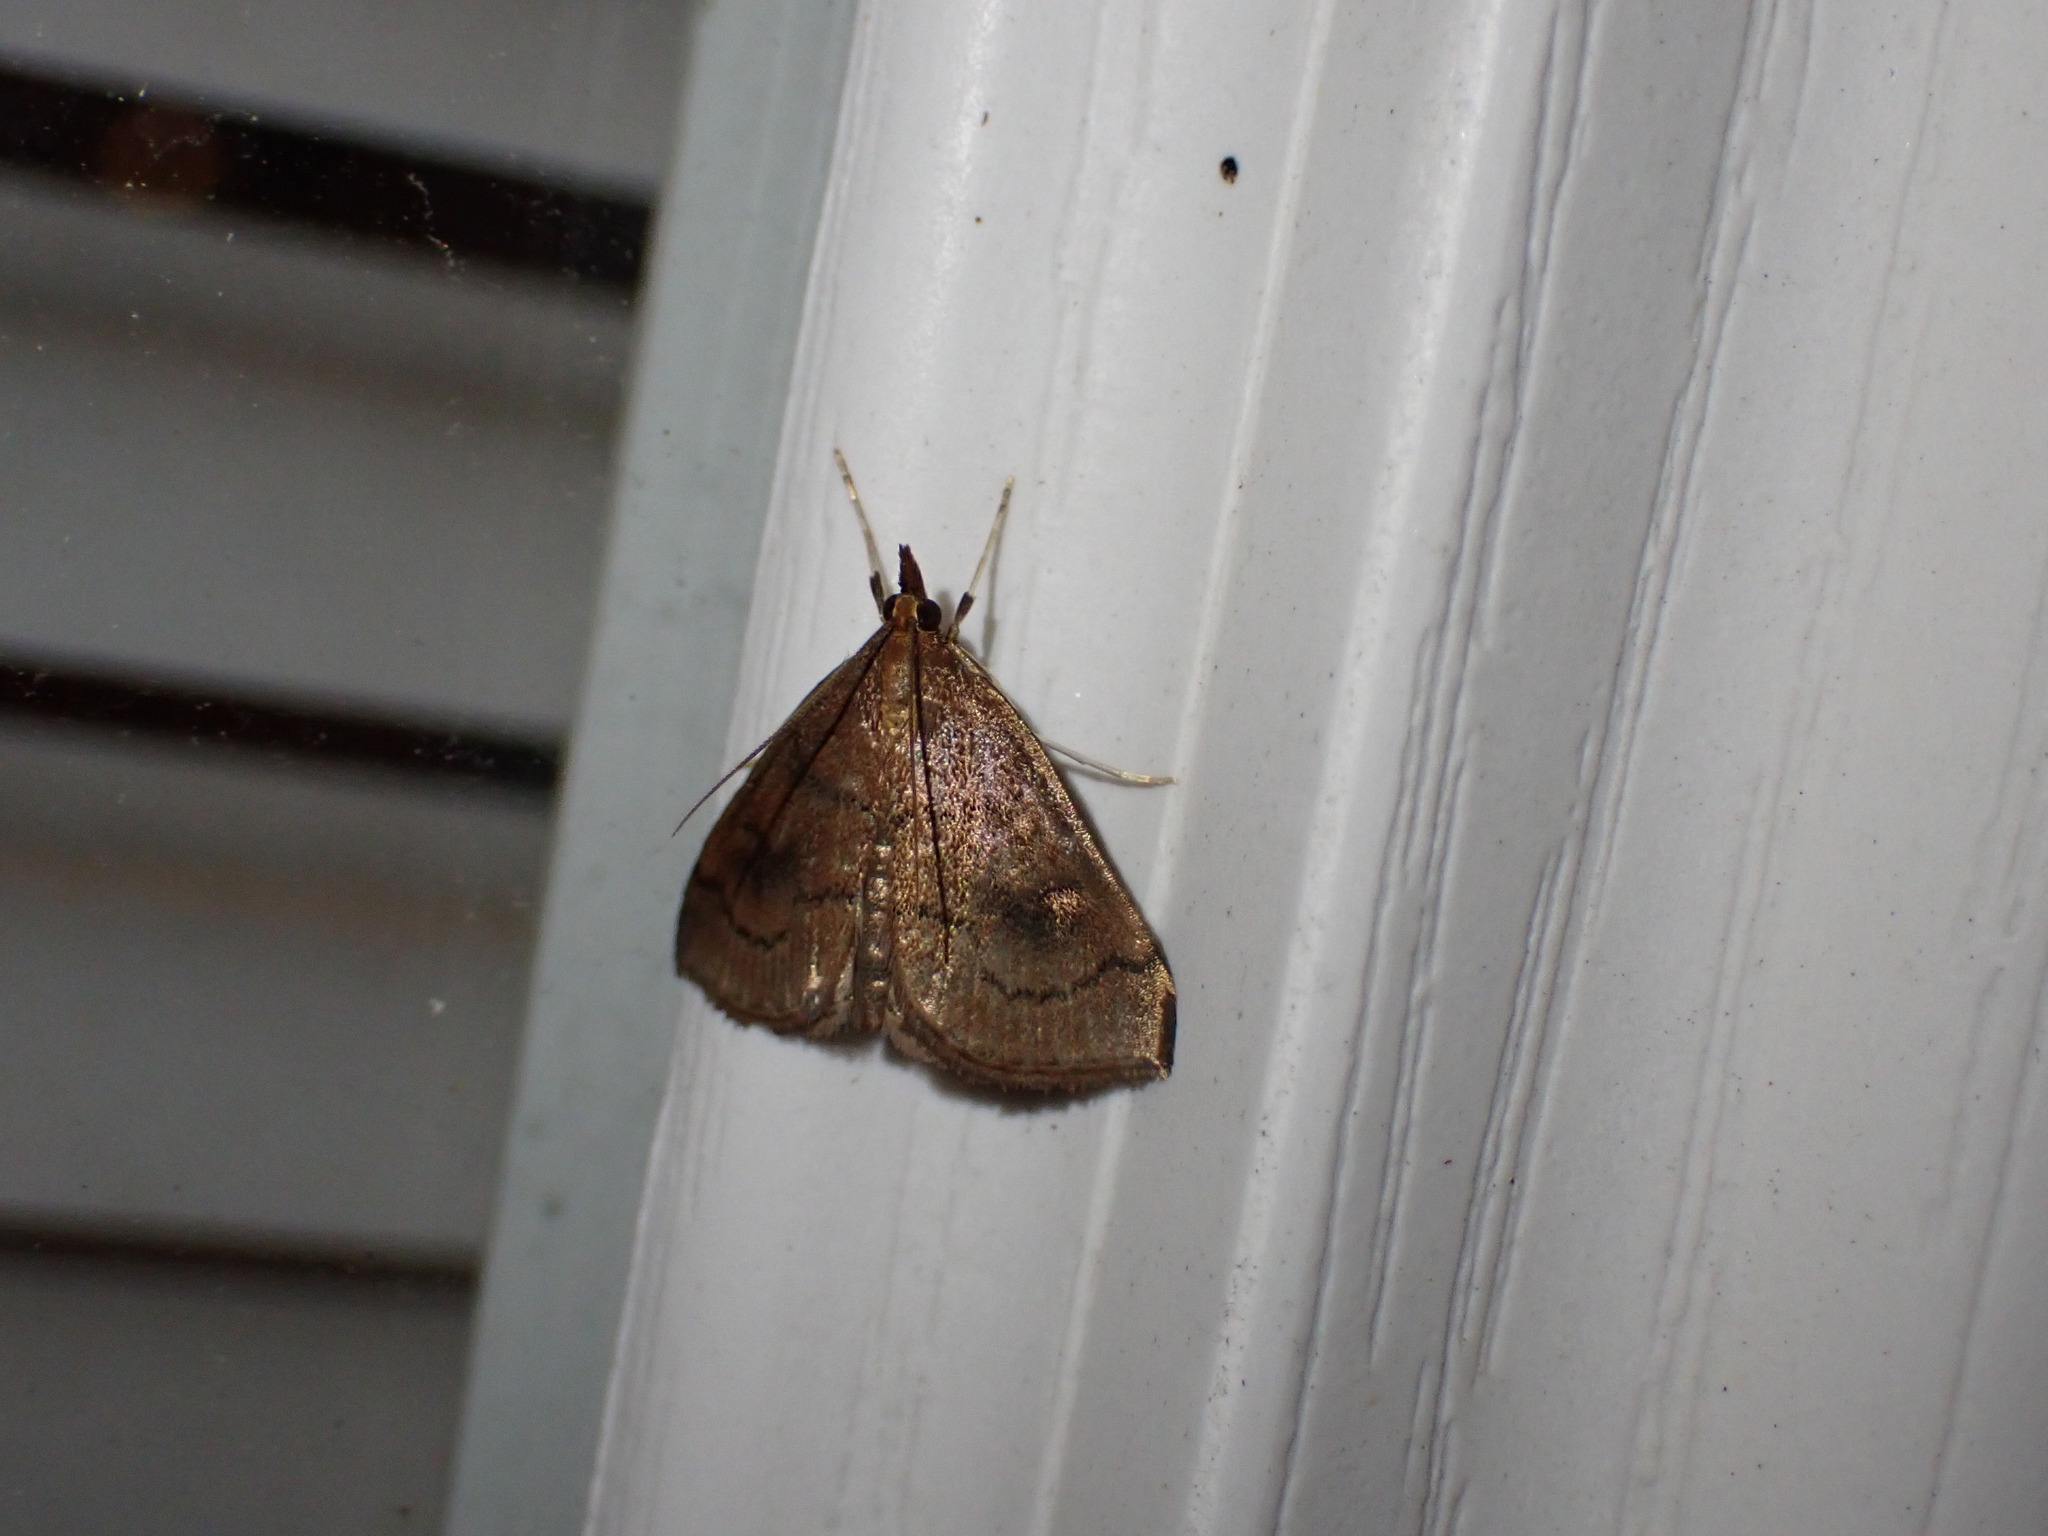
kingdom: Animalia
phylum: Arthropoda
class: Insecta
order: Lepidoptera
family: Crambidae
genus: Fumibotys
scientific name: Fumibotys fumalis
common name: Mint root borer moth
